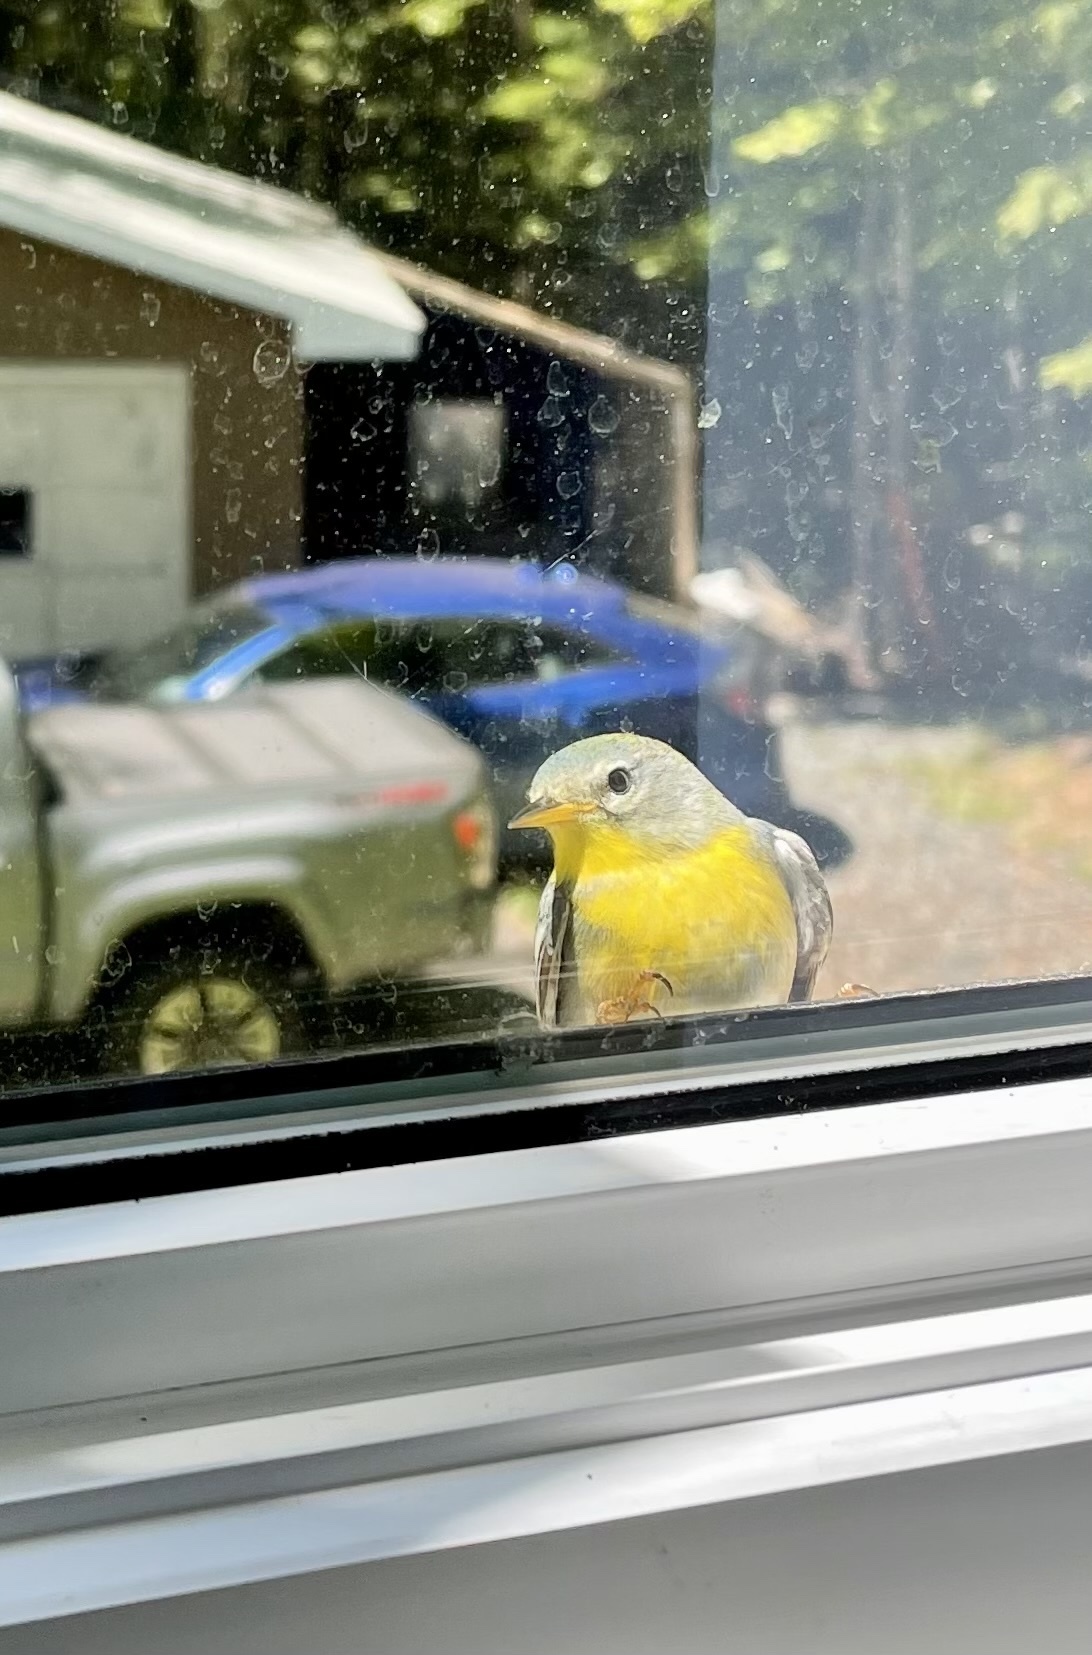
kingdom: Animalia
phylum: Chordata
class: Aves
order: Passeriformes
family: Parulidae
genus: Setophaga
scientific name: Setophaga americana
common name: Northern parula
